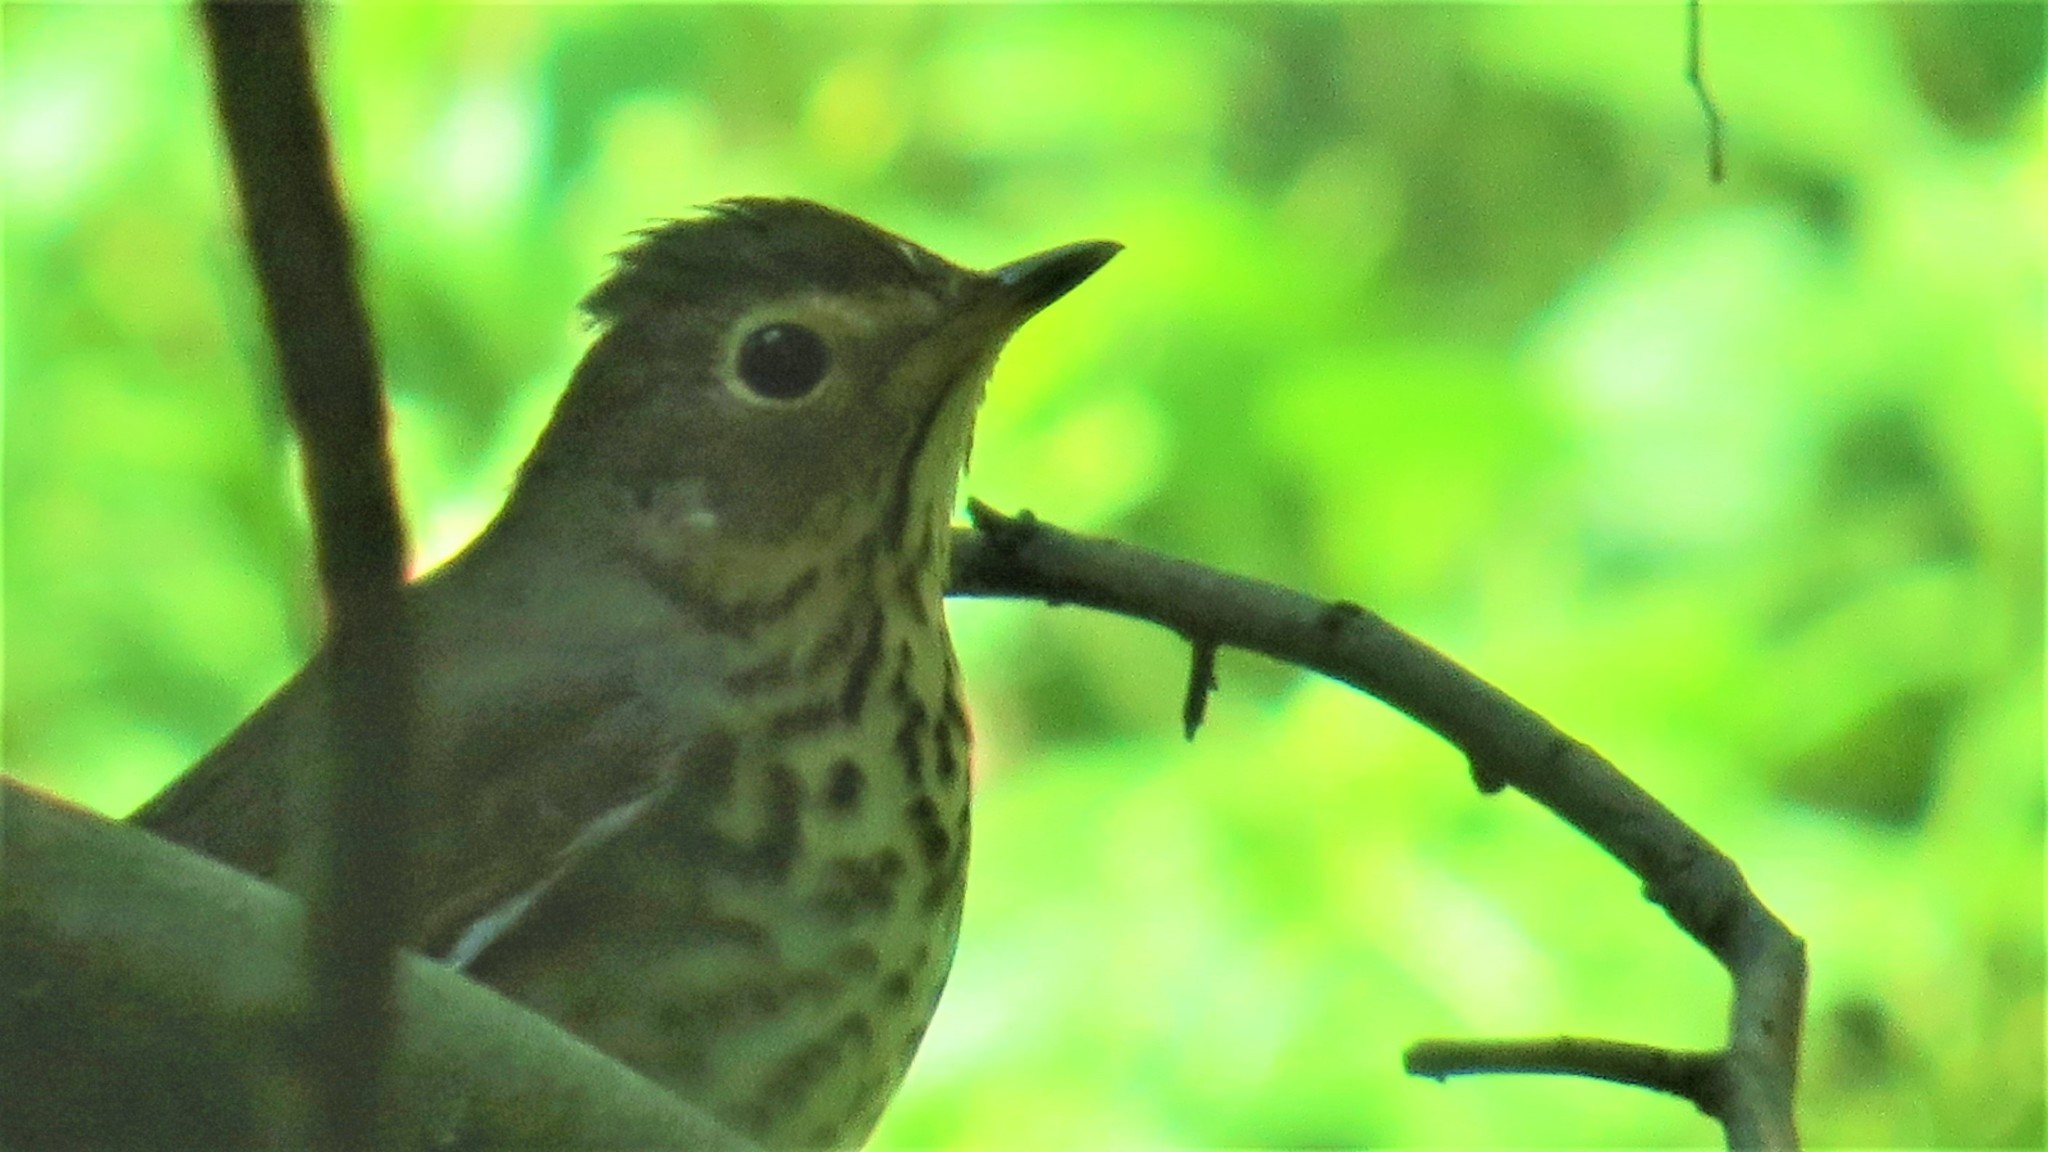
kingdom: Animalia
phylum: Chordata
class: Aves
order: Passeriformes
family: Turdidae
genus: Catharus
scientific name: Catharus ustulatus
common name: Swainson's thrush
